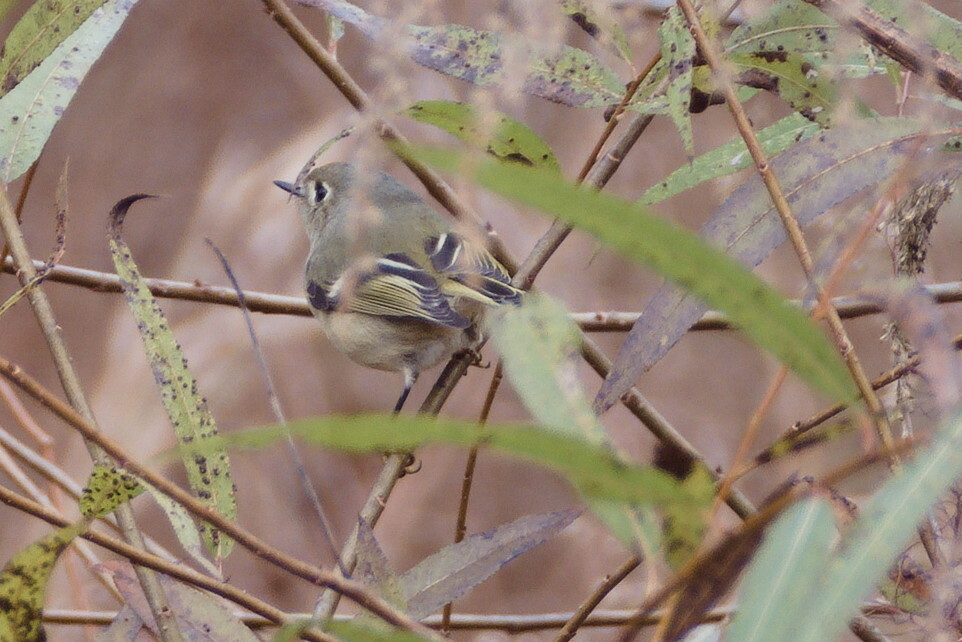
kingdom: Animalia
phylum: Chordata
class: Aves
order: Passeriformes
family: Regulidae
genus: Regulus
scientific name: Regulus calendula
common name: Ruby-crowned kinglet
